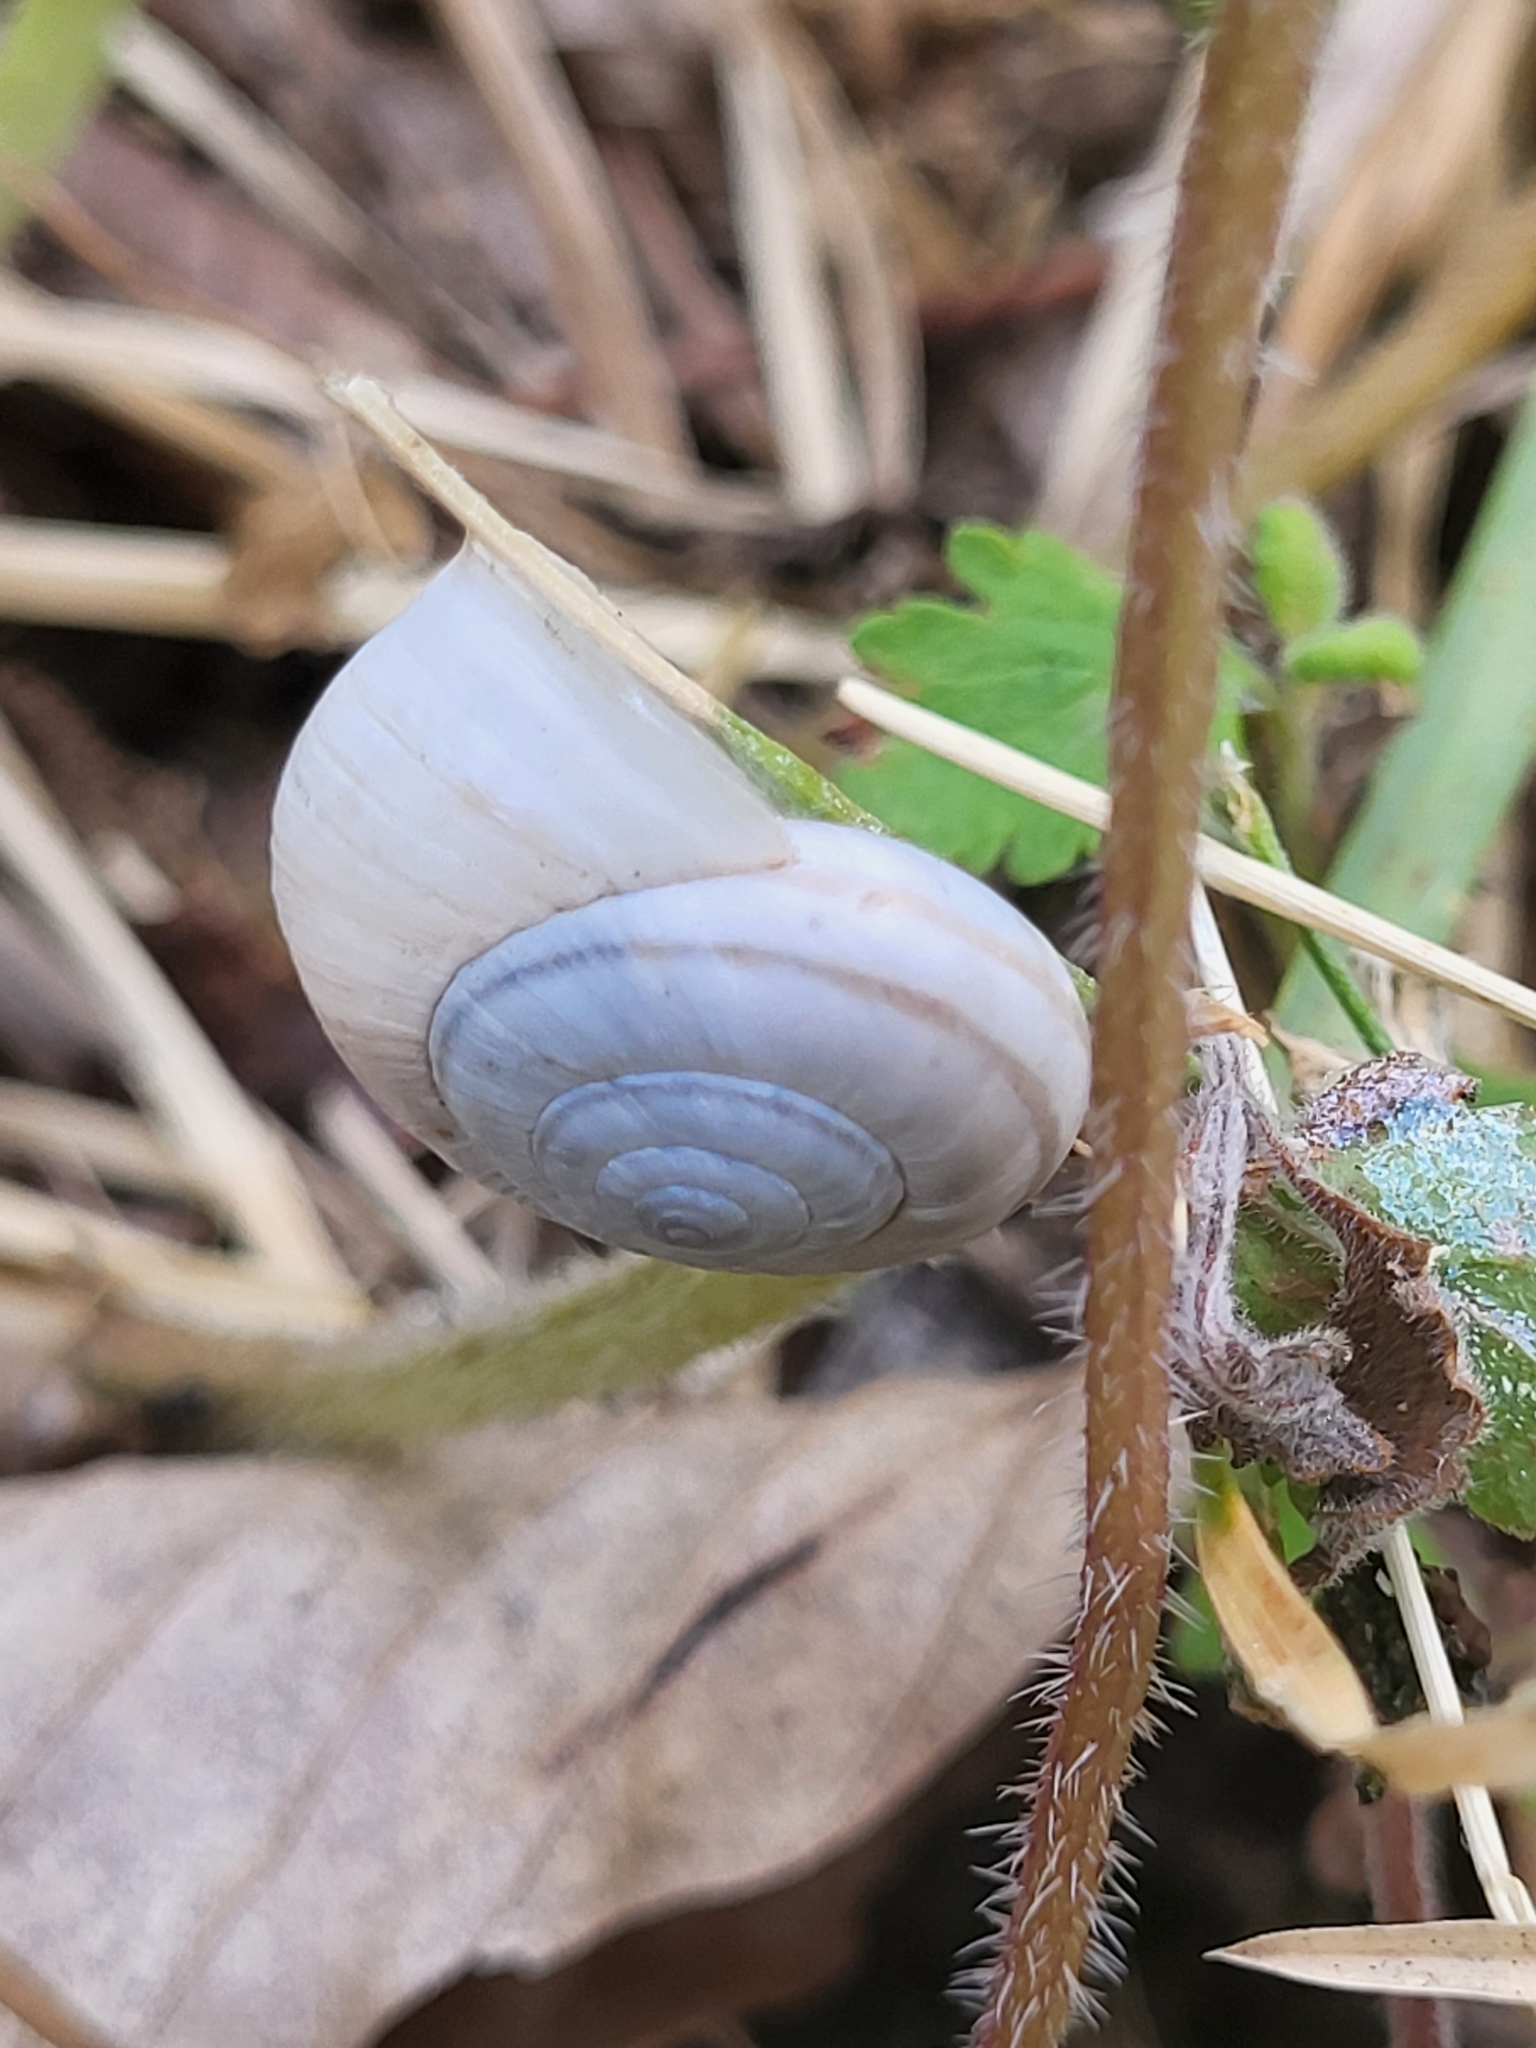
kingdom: Animalia
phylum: Mollusca
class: Gastropoda
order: Stylommatophora
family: Hygromiidae
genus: Dioscuria
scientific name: Dioscuria abchasica
